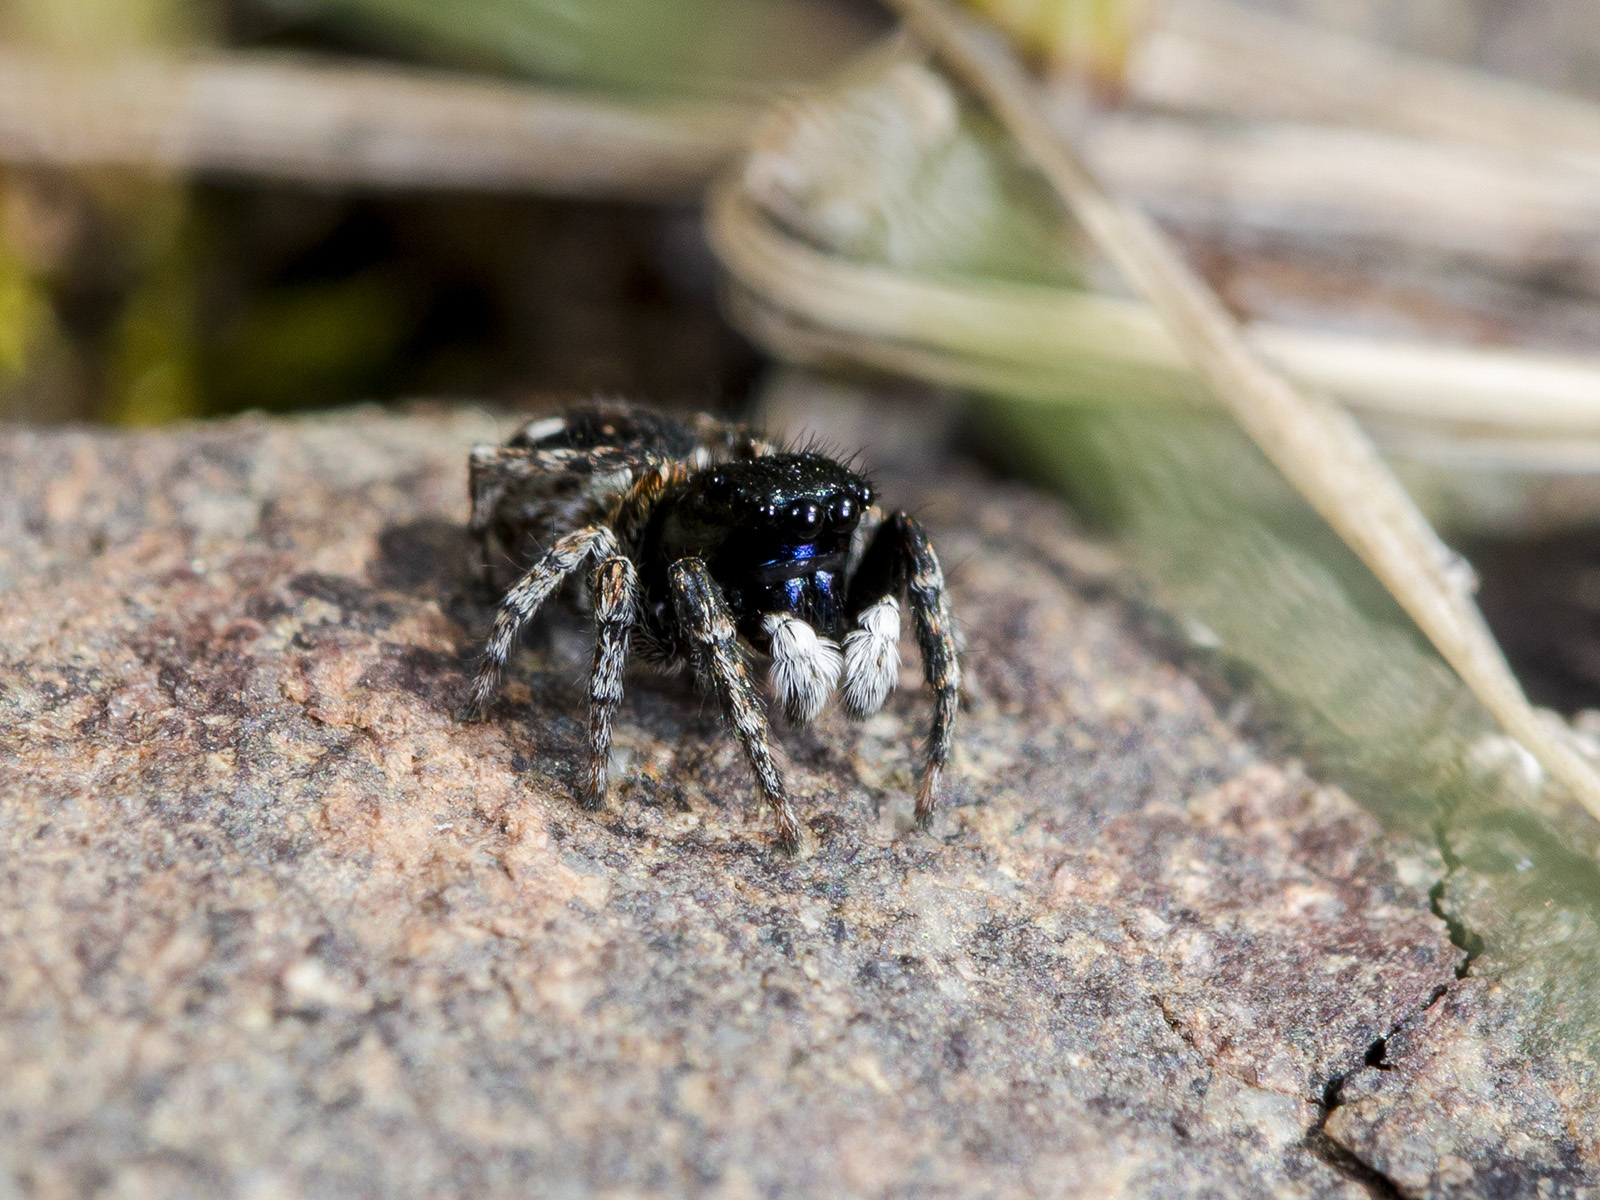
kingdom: Animalia
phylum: Arthropoda
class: Arachnida
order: Araneae
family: Salticidae
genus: Attulus
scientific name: Attulus mirandus
